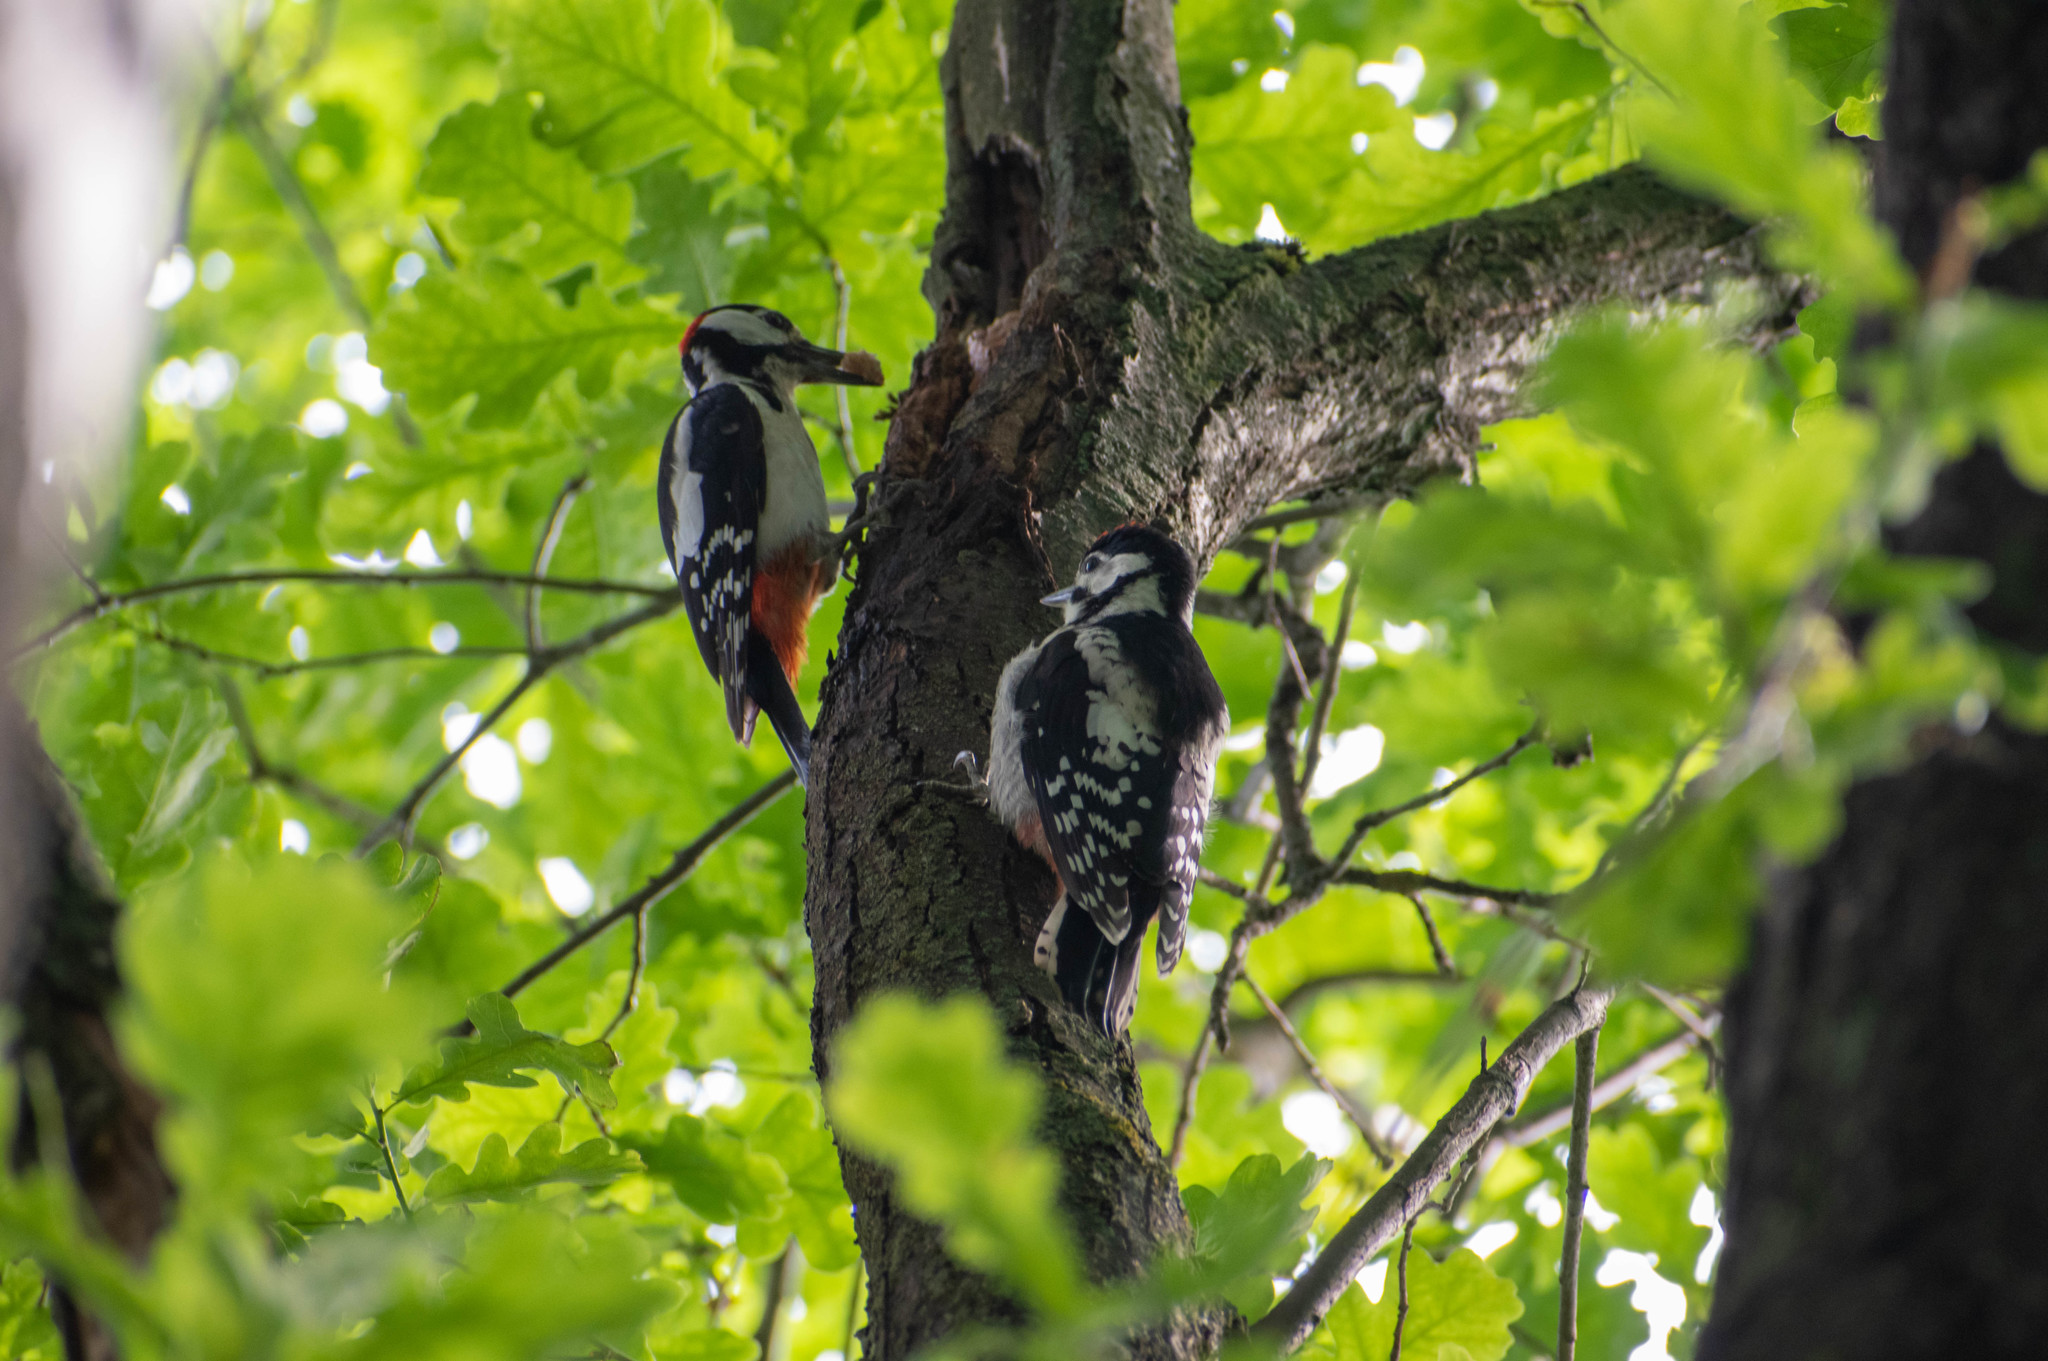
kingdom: Animalia
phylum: Chordata
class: Aves
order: Piciformes
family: Picidae
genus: Dendrocopos
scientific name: Dendrocopos major
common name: Great spotted woodpecker
